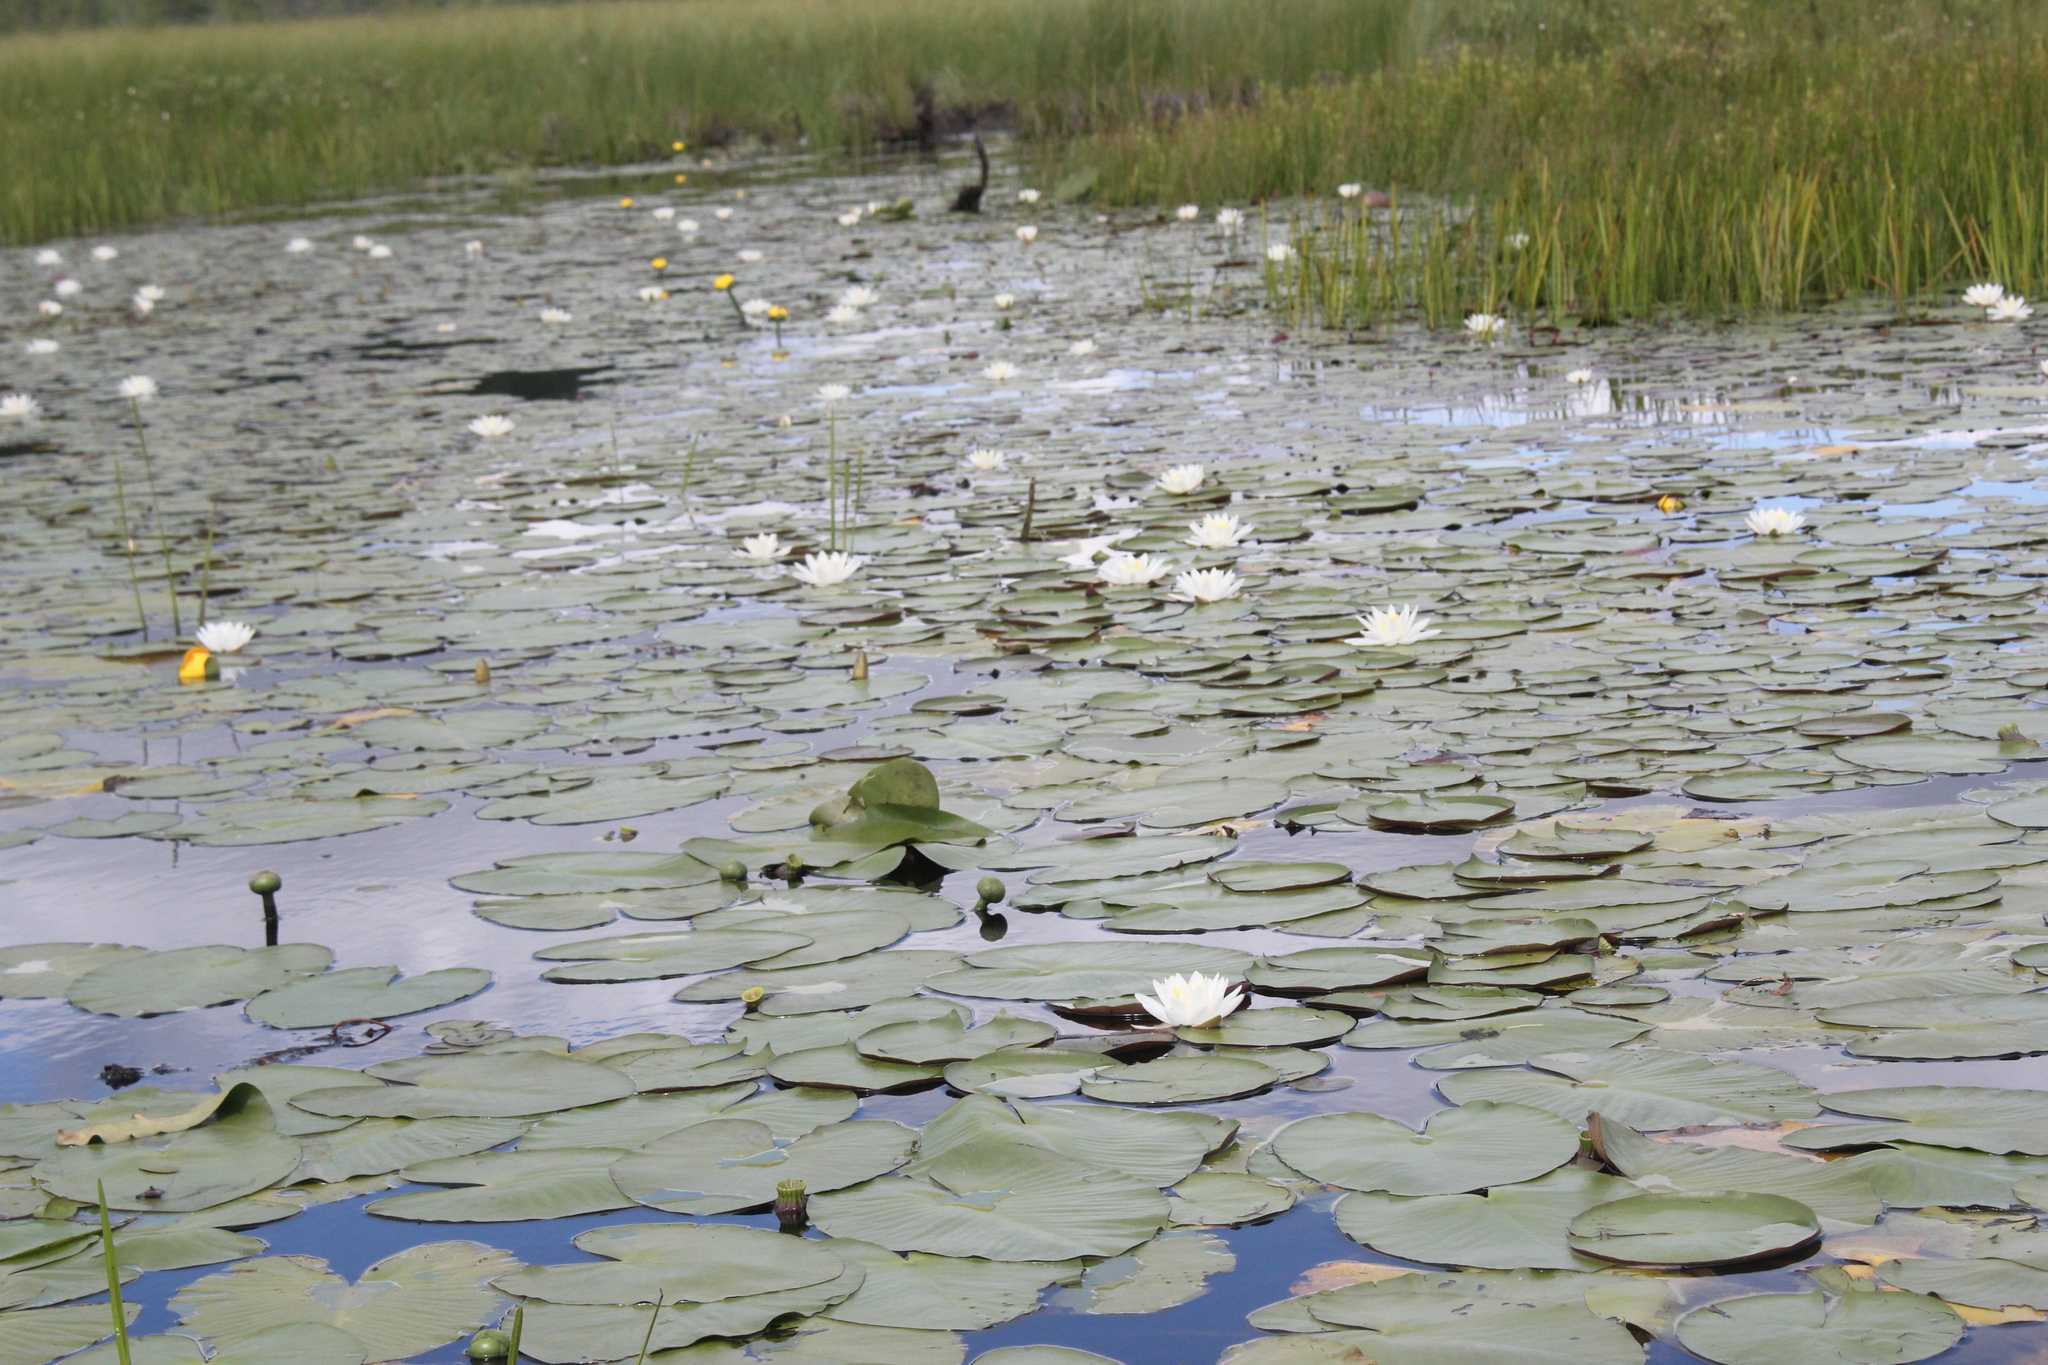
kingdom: Plantae
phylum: Tracheophyta
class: Magnoliopsida
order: Nymphaeales
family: Nymphaeaceae
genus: Nymphaea
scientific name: Nymphaea odorata
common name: Fragrant water-lily
